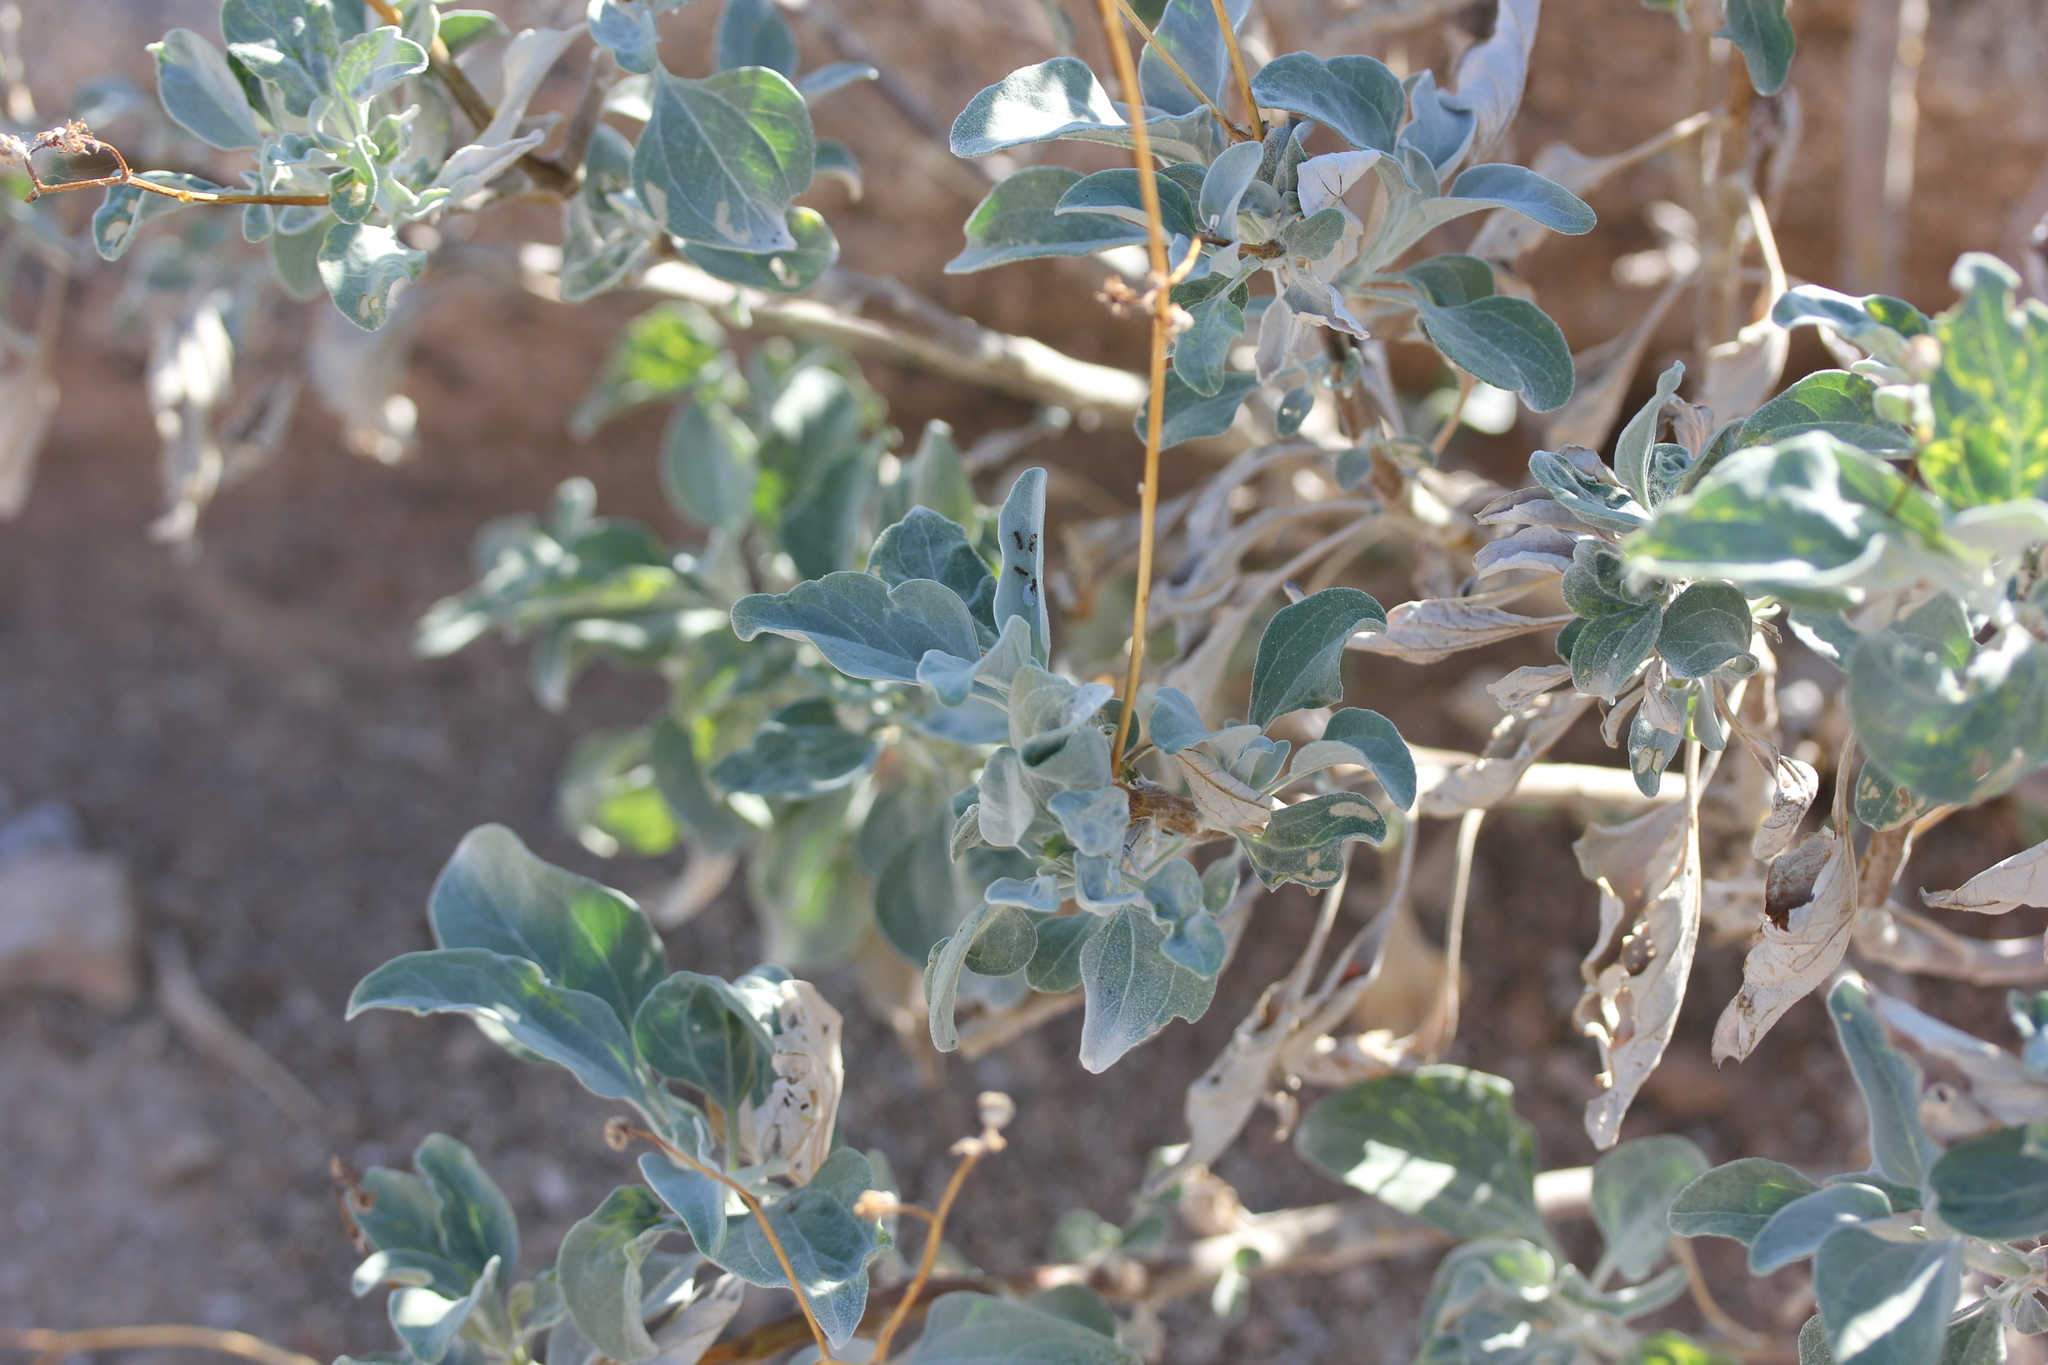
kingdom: Plantae
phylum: Tracheophyta
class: Magnoliopsida
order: Asterales
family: Asteraceae
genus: Encelia
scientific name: Encelia farinosa
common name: Brittlebush
